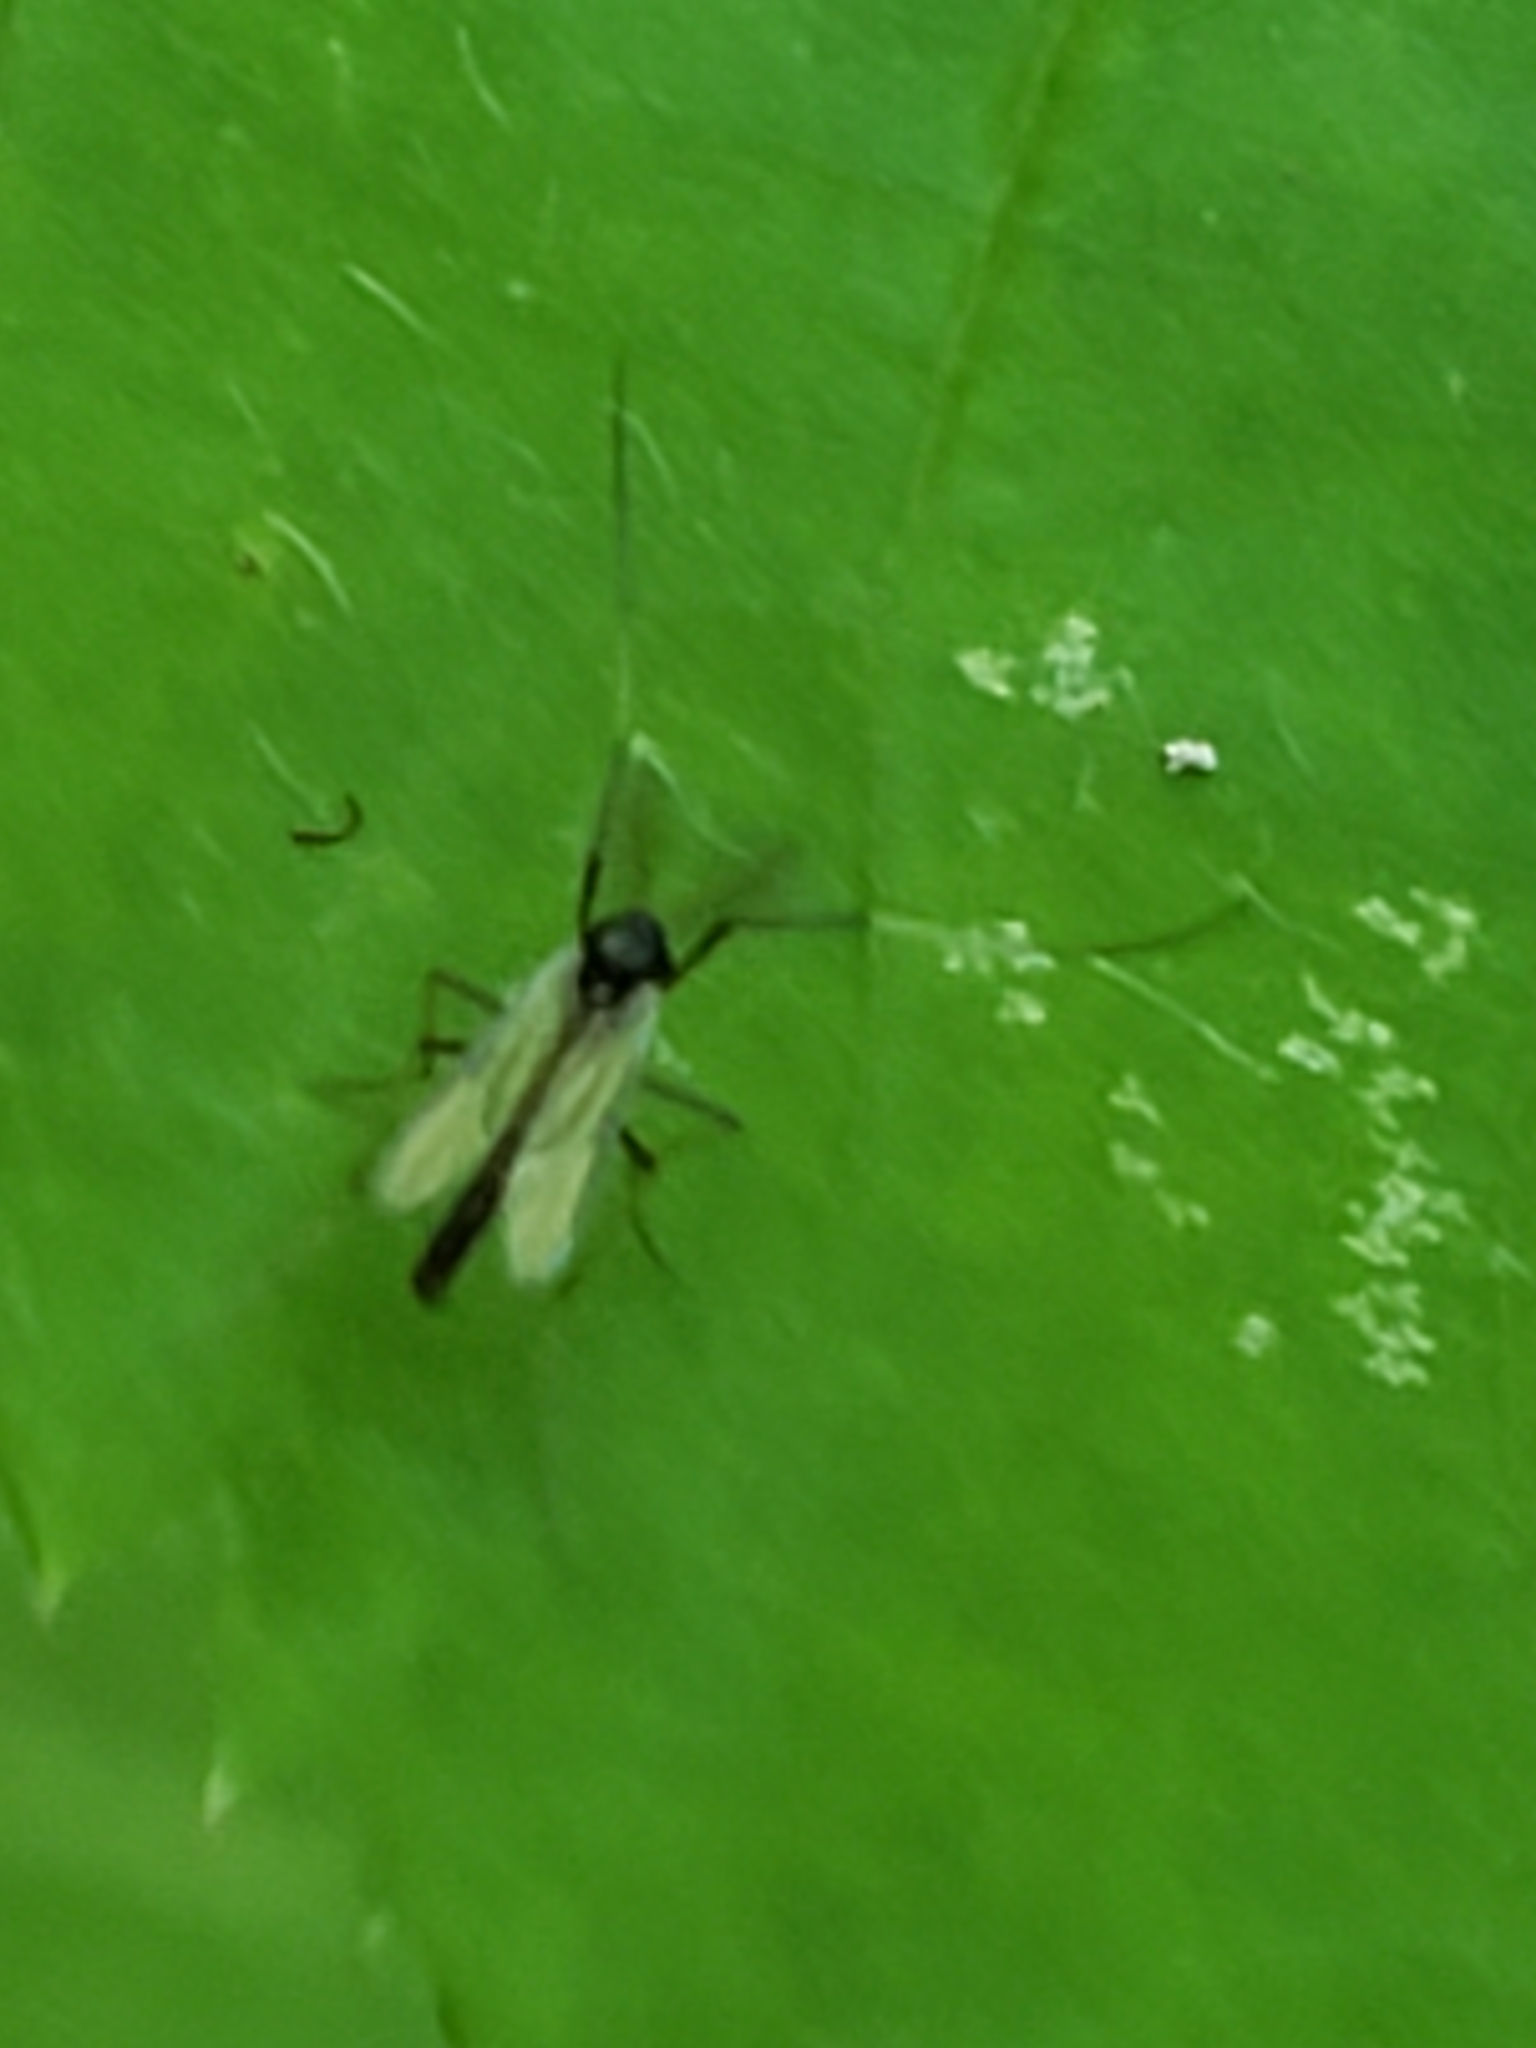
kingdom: Animalia
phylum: Arthropoda
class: Insecta
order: Diptera
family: Chironomidae
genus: Paratendipes
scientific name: Paratendipes albimanus
